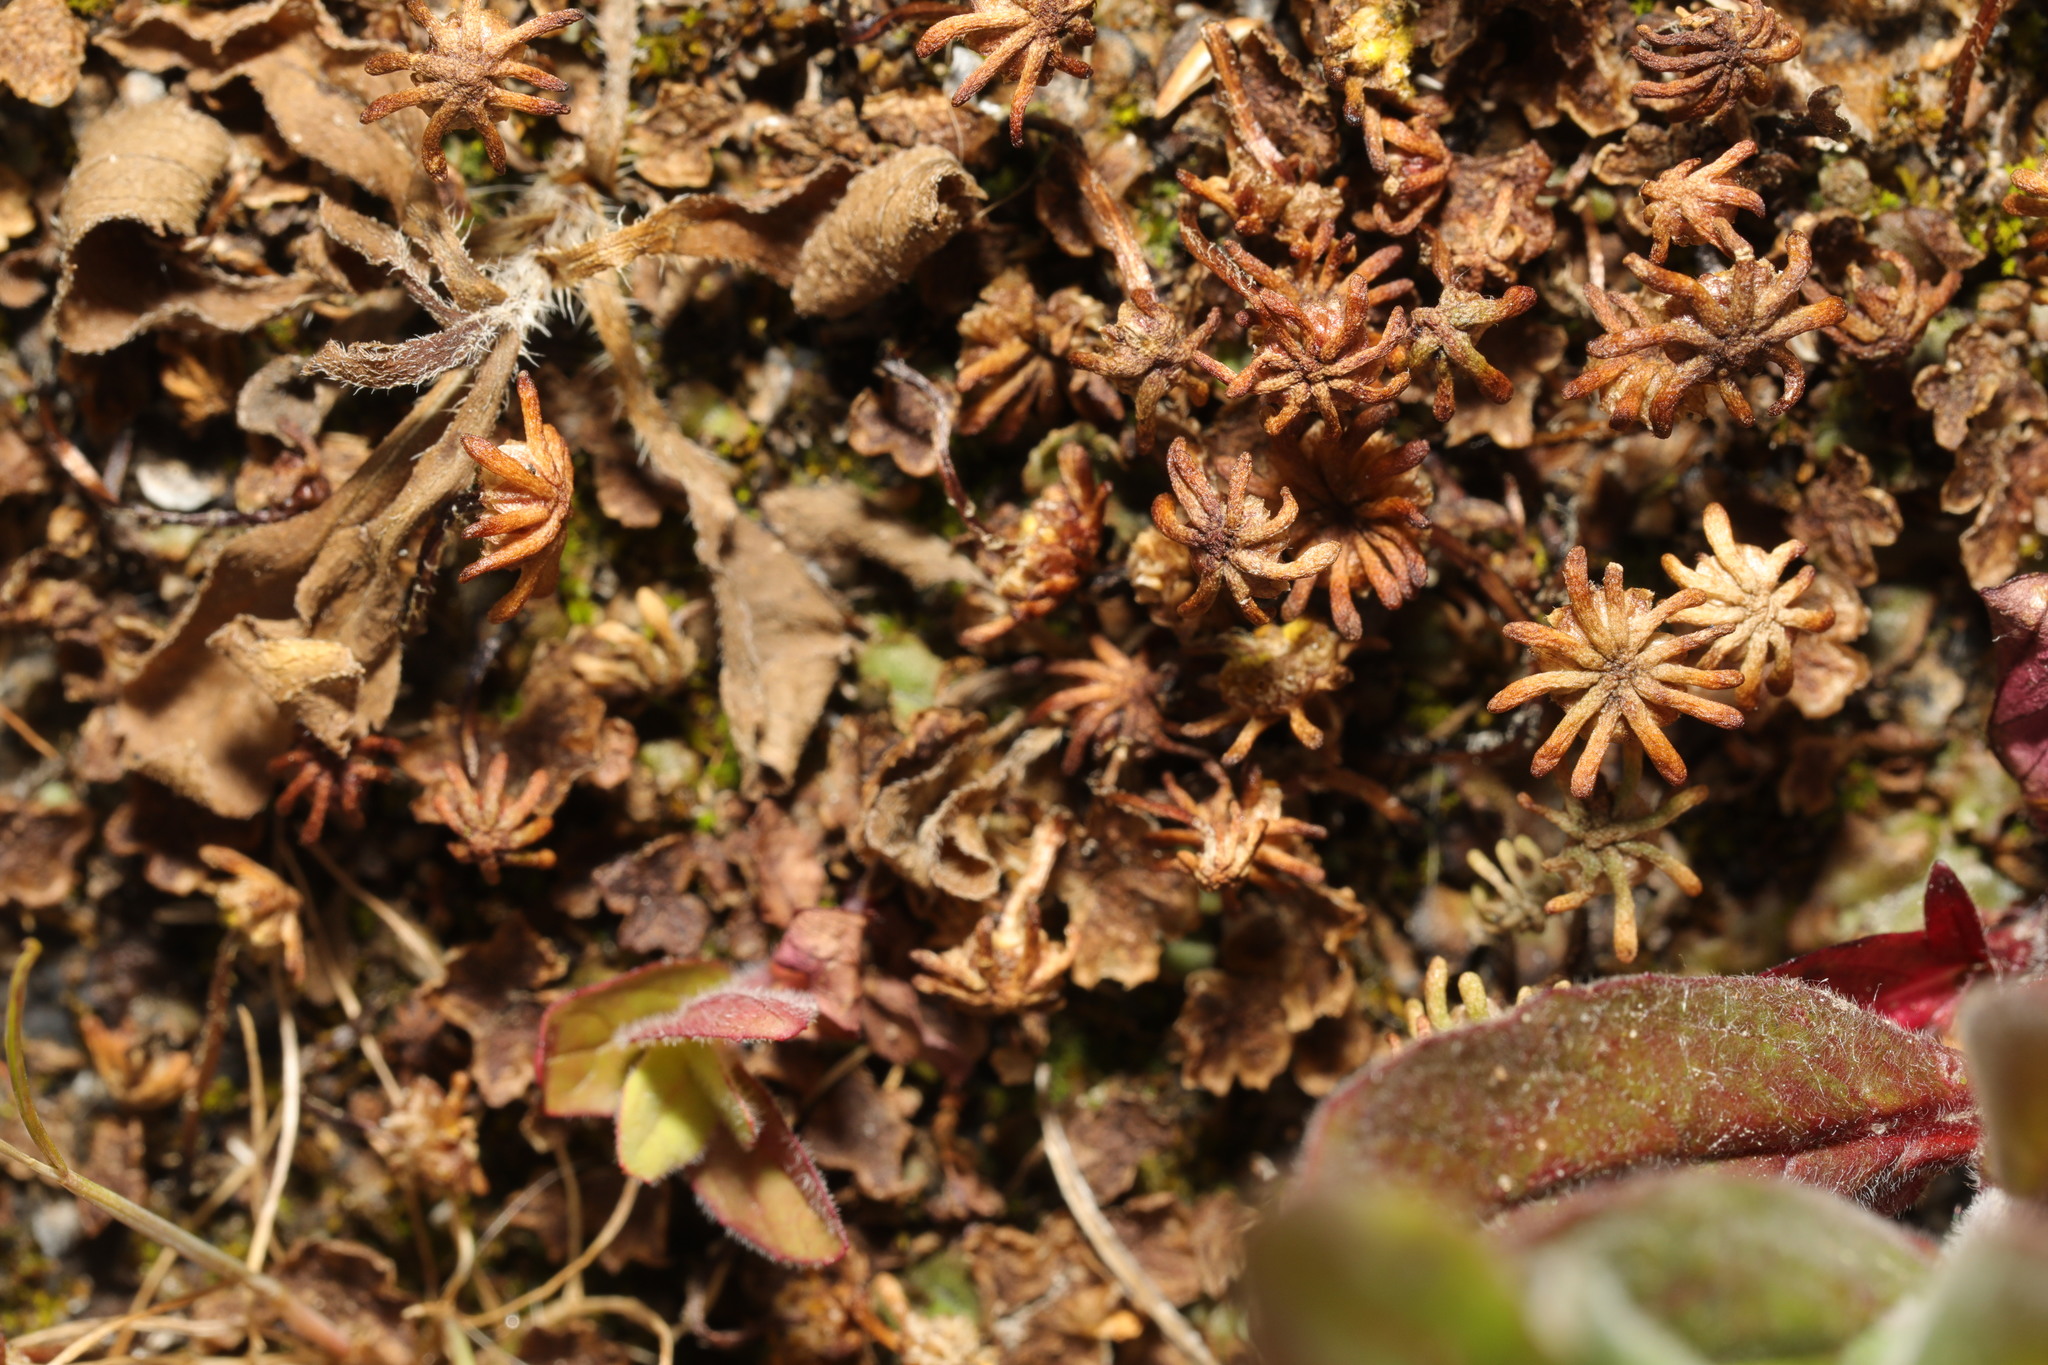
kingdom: Plantae
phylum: Marchantiophyta
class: Marchantiopsida
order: Marchantiales
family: Marchantiaceae
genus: Marchantia
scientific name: Marchantia polymorpha
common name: Common liverwort
